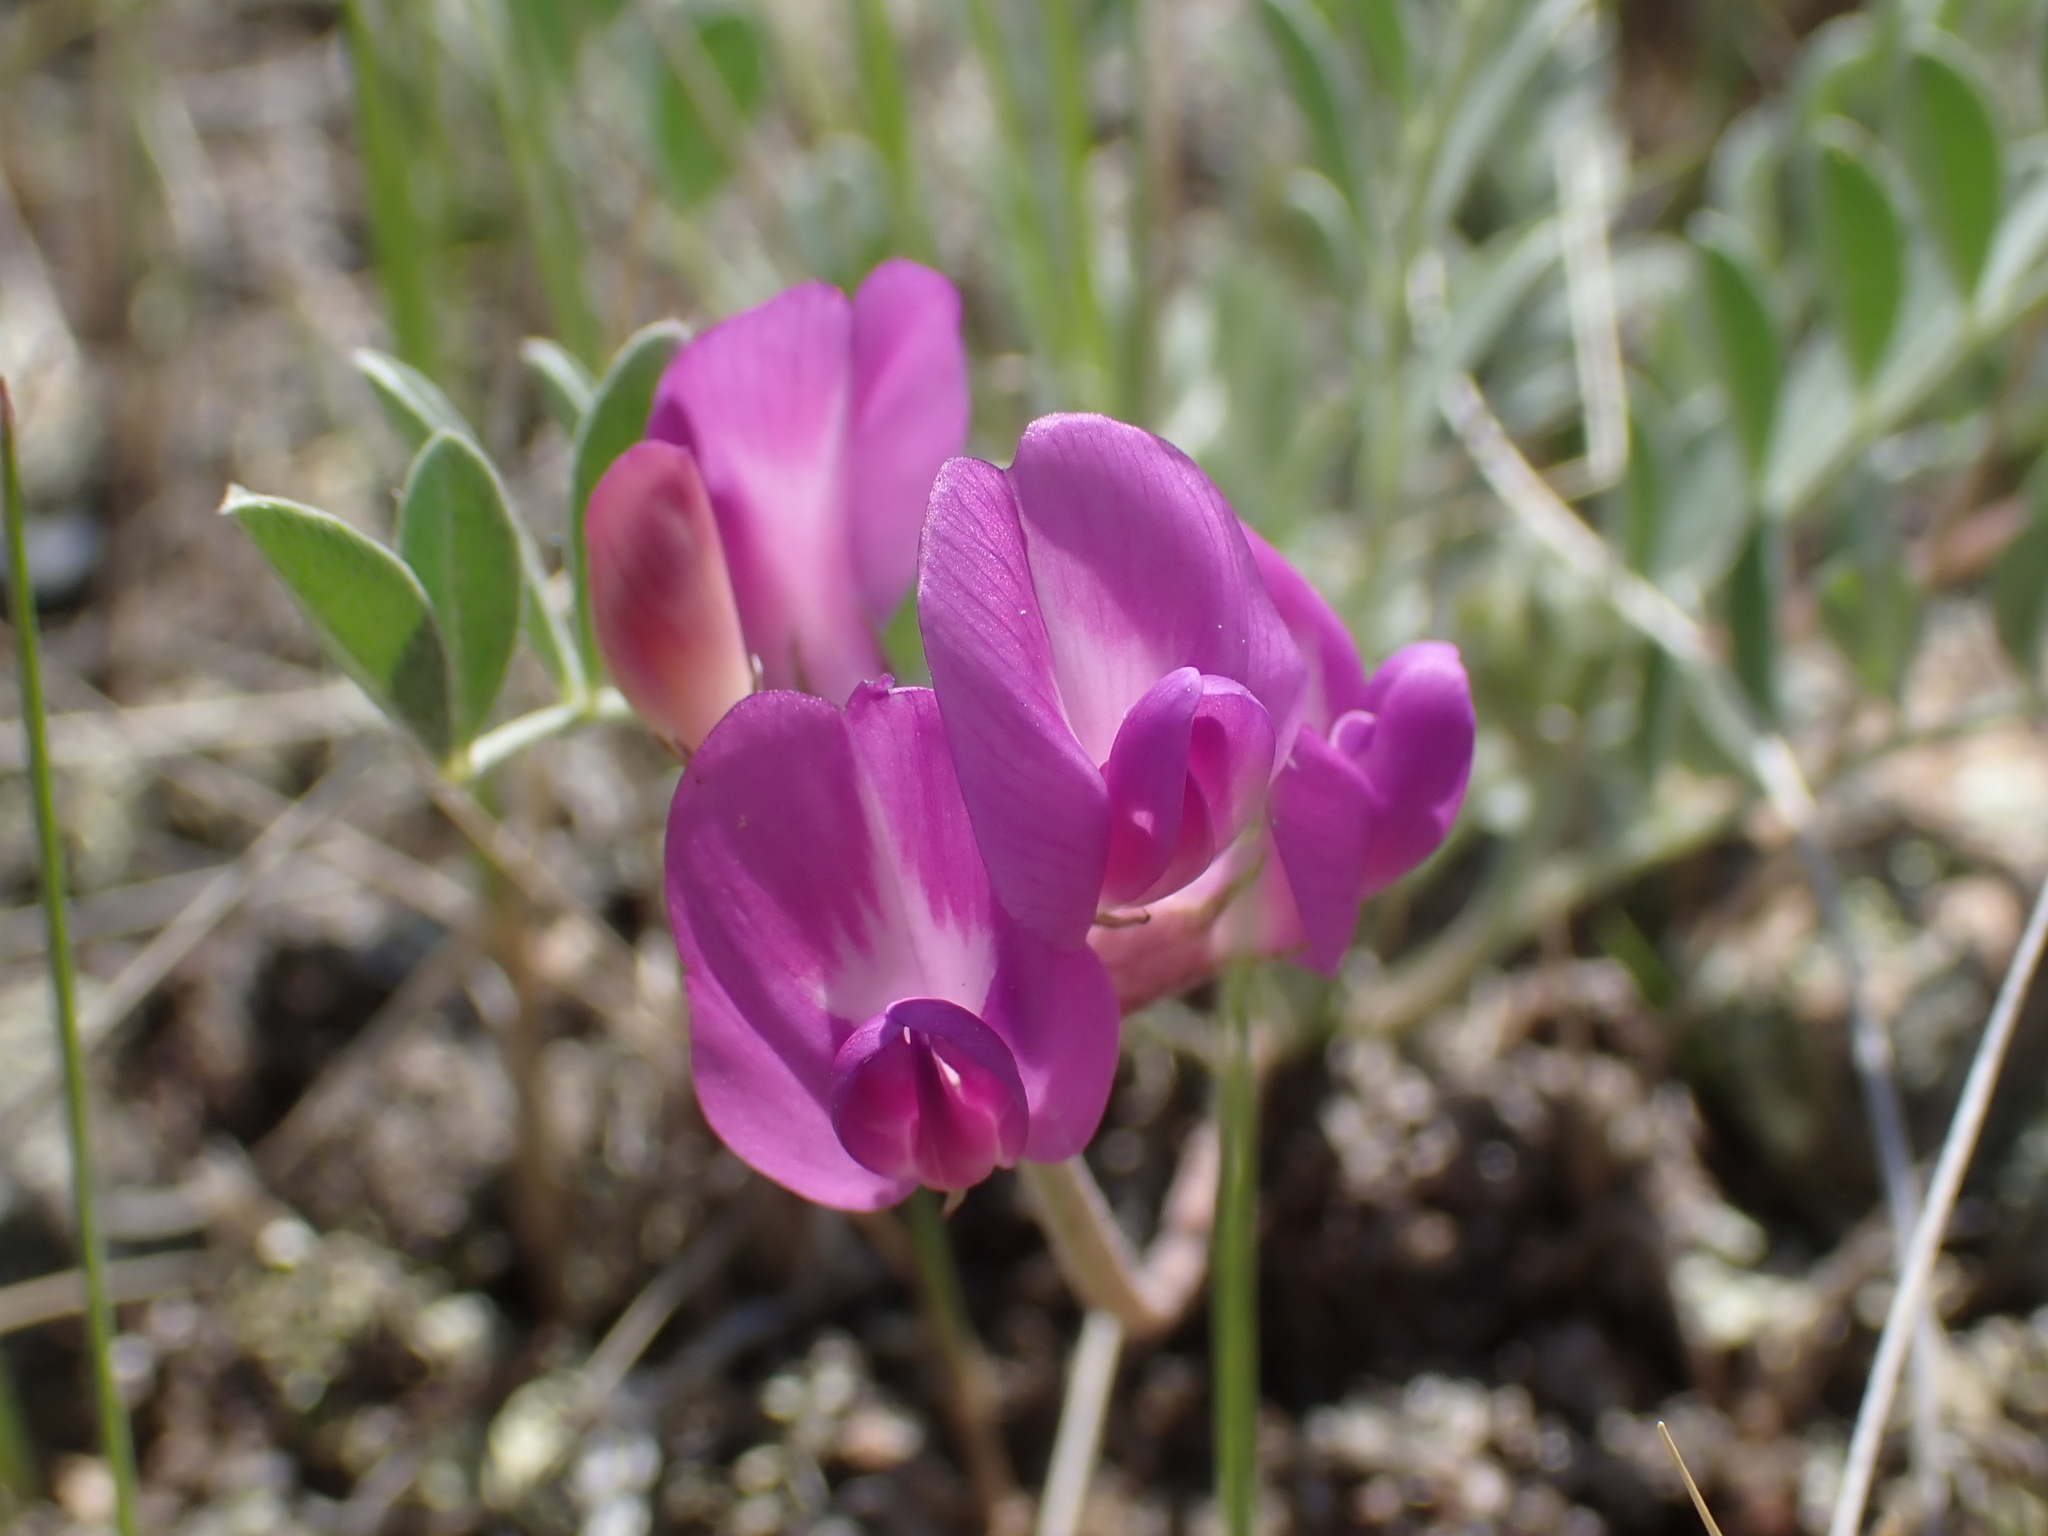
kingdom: Plantae
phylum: Tracheophyta
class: Magnoliopsida
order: Fabales
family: Fabaceae
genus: Astragalus
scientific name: Astragalus missouriensis
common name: Missouri milk-vetch
